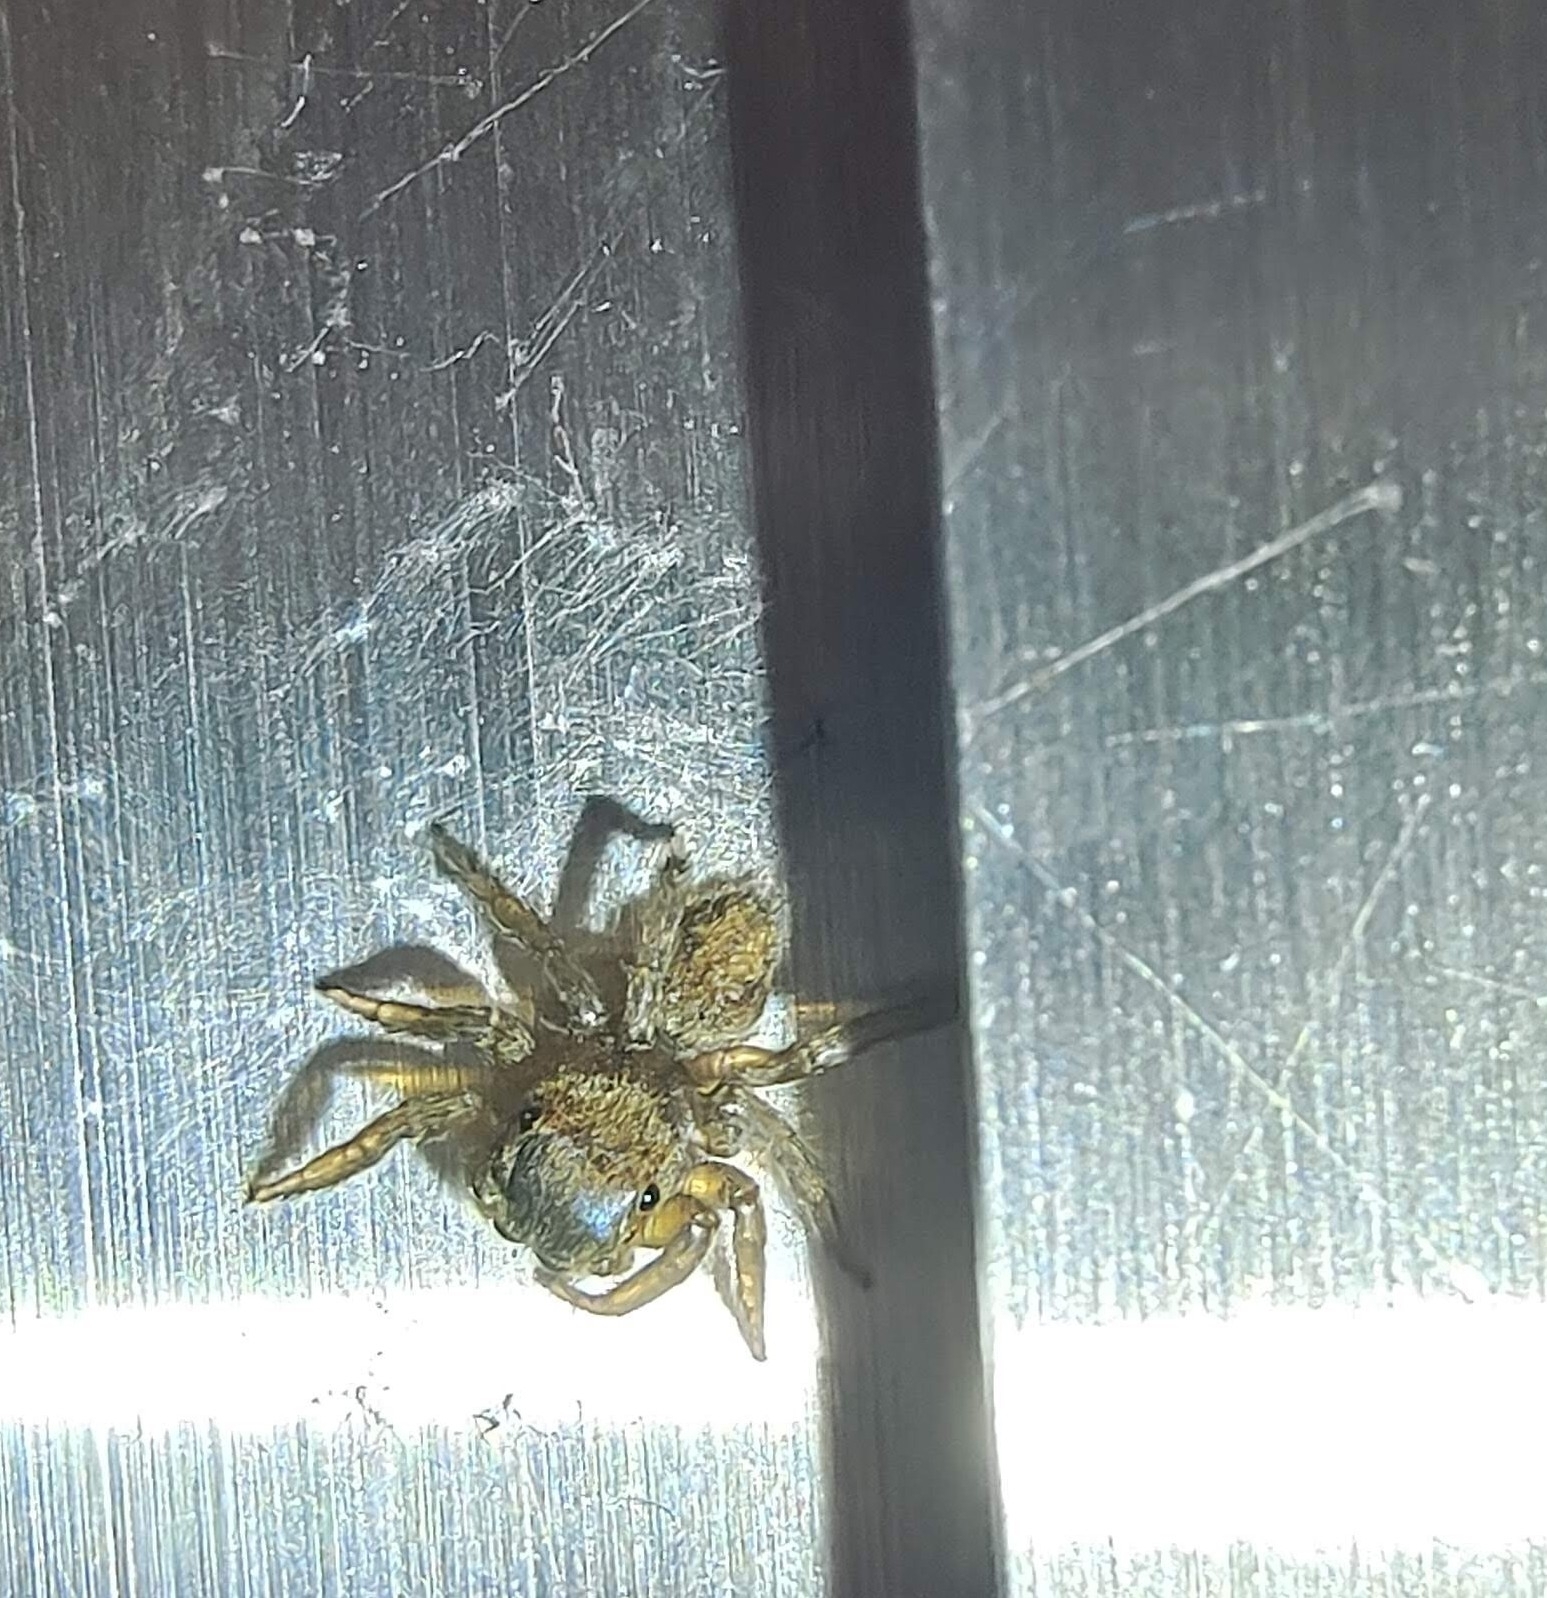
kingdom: Animalia
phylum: Arthropoda
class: Arachnida
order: Araneae
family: Salticidae
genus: Hasarius
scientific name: Hasarius adansoni
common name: Jumping spider
